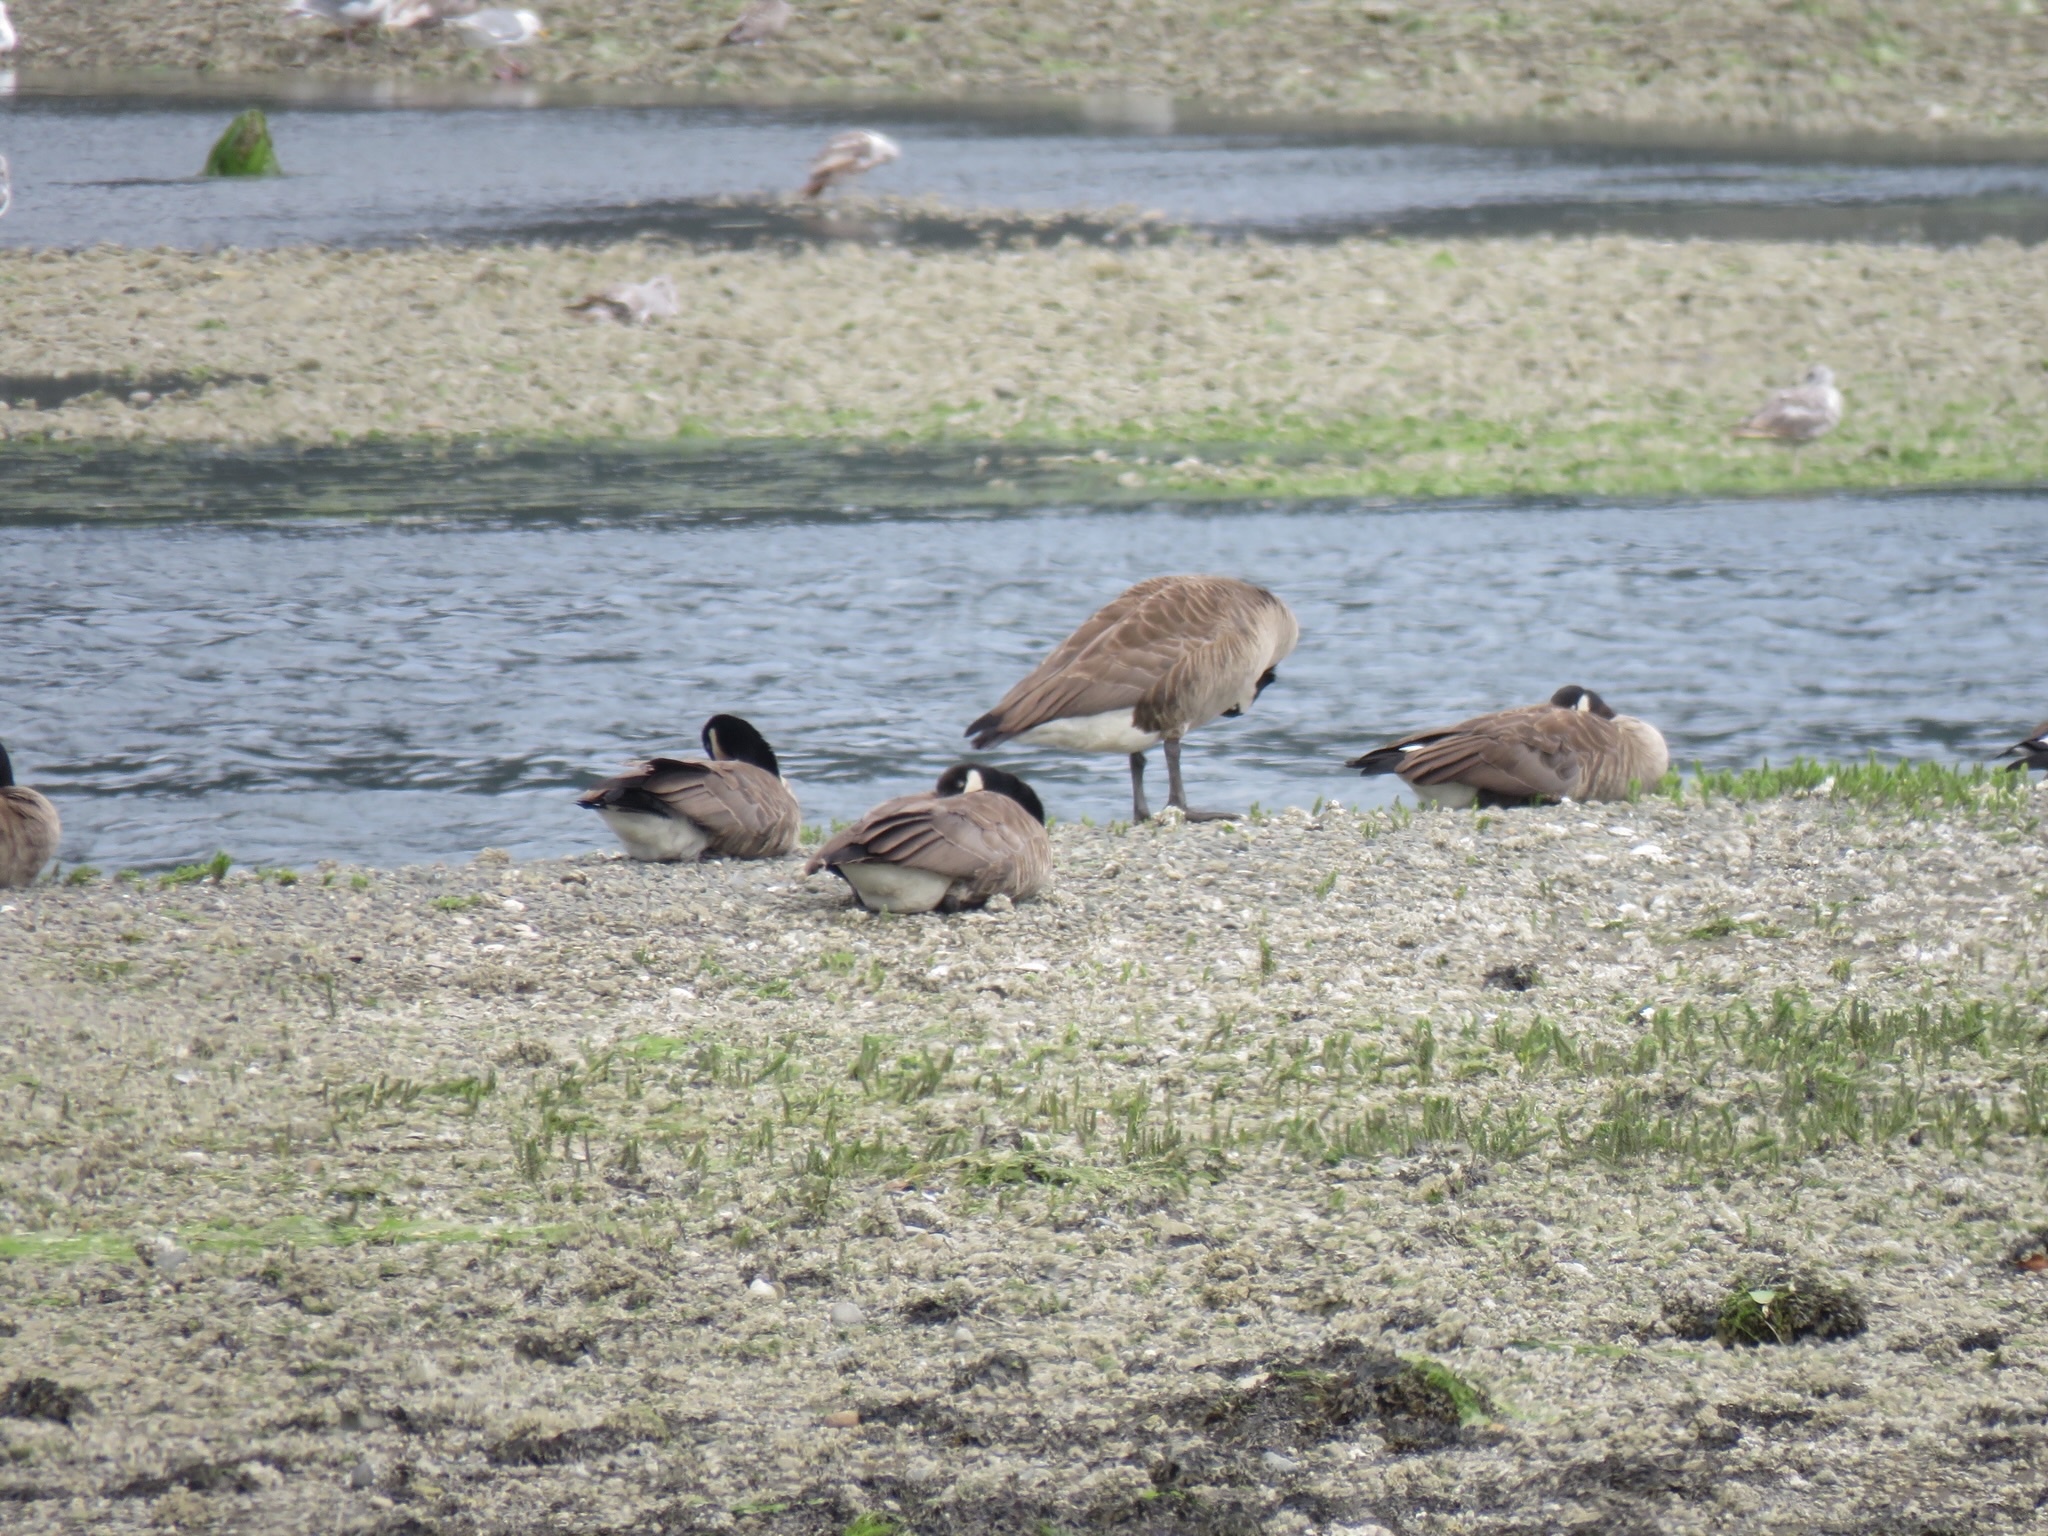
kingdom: Animalia
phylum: Chordata
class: Aves
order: Anseriformes
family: Anatidae
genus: Branta
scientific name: Branta canadensis
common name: Canada goose
